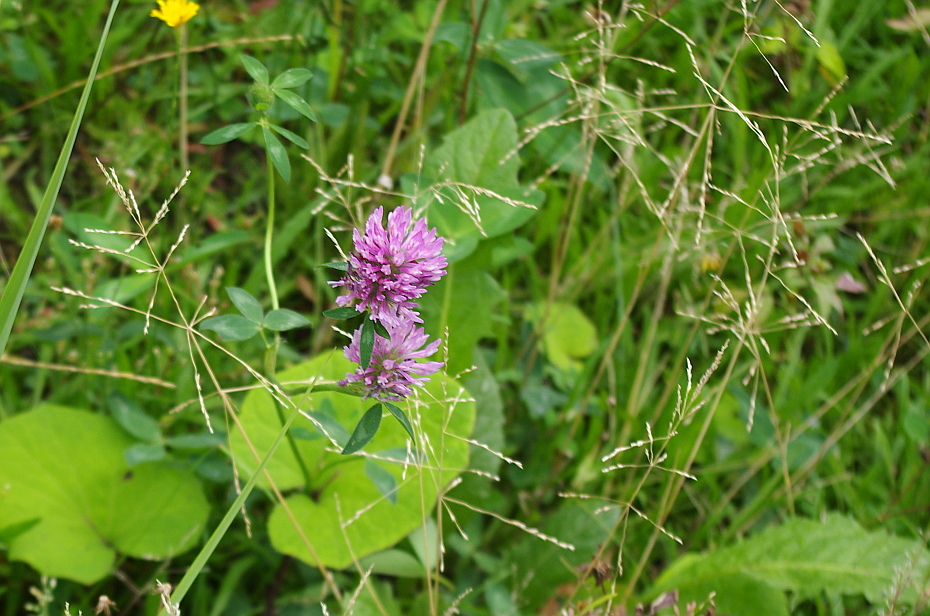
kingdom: Plantae
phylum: Tracheophyta
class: Magnoliopsida
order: Fabales
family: Fabaceae
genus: Trifolium
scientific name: Trifolium pratense
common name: Red clover
